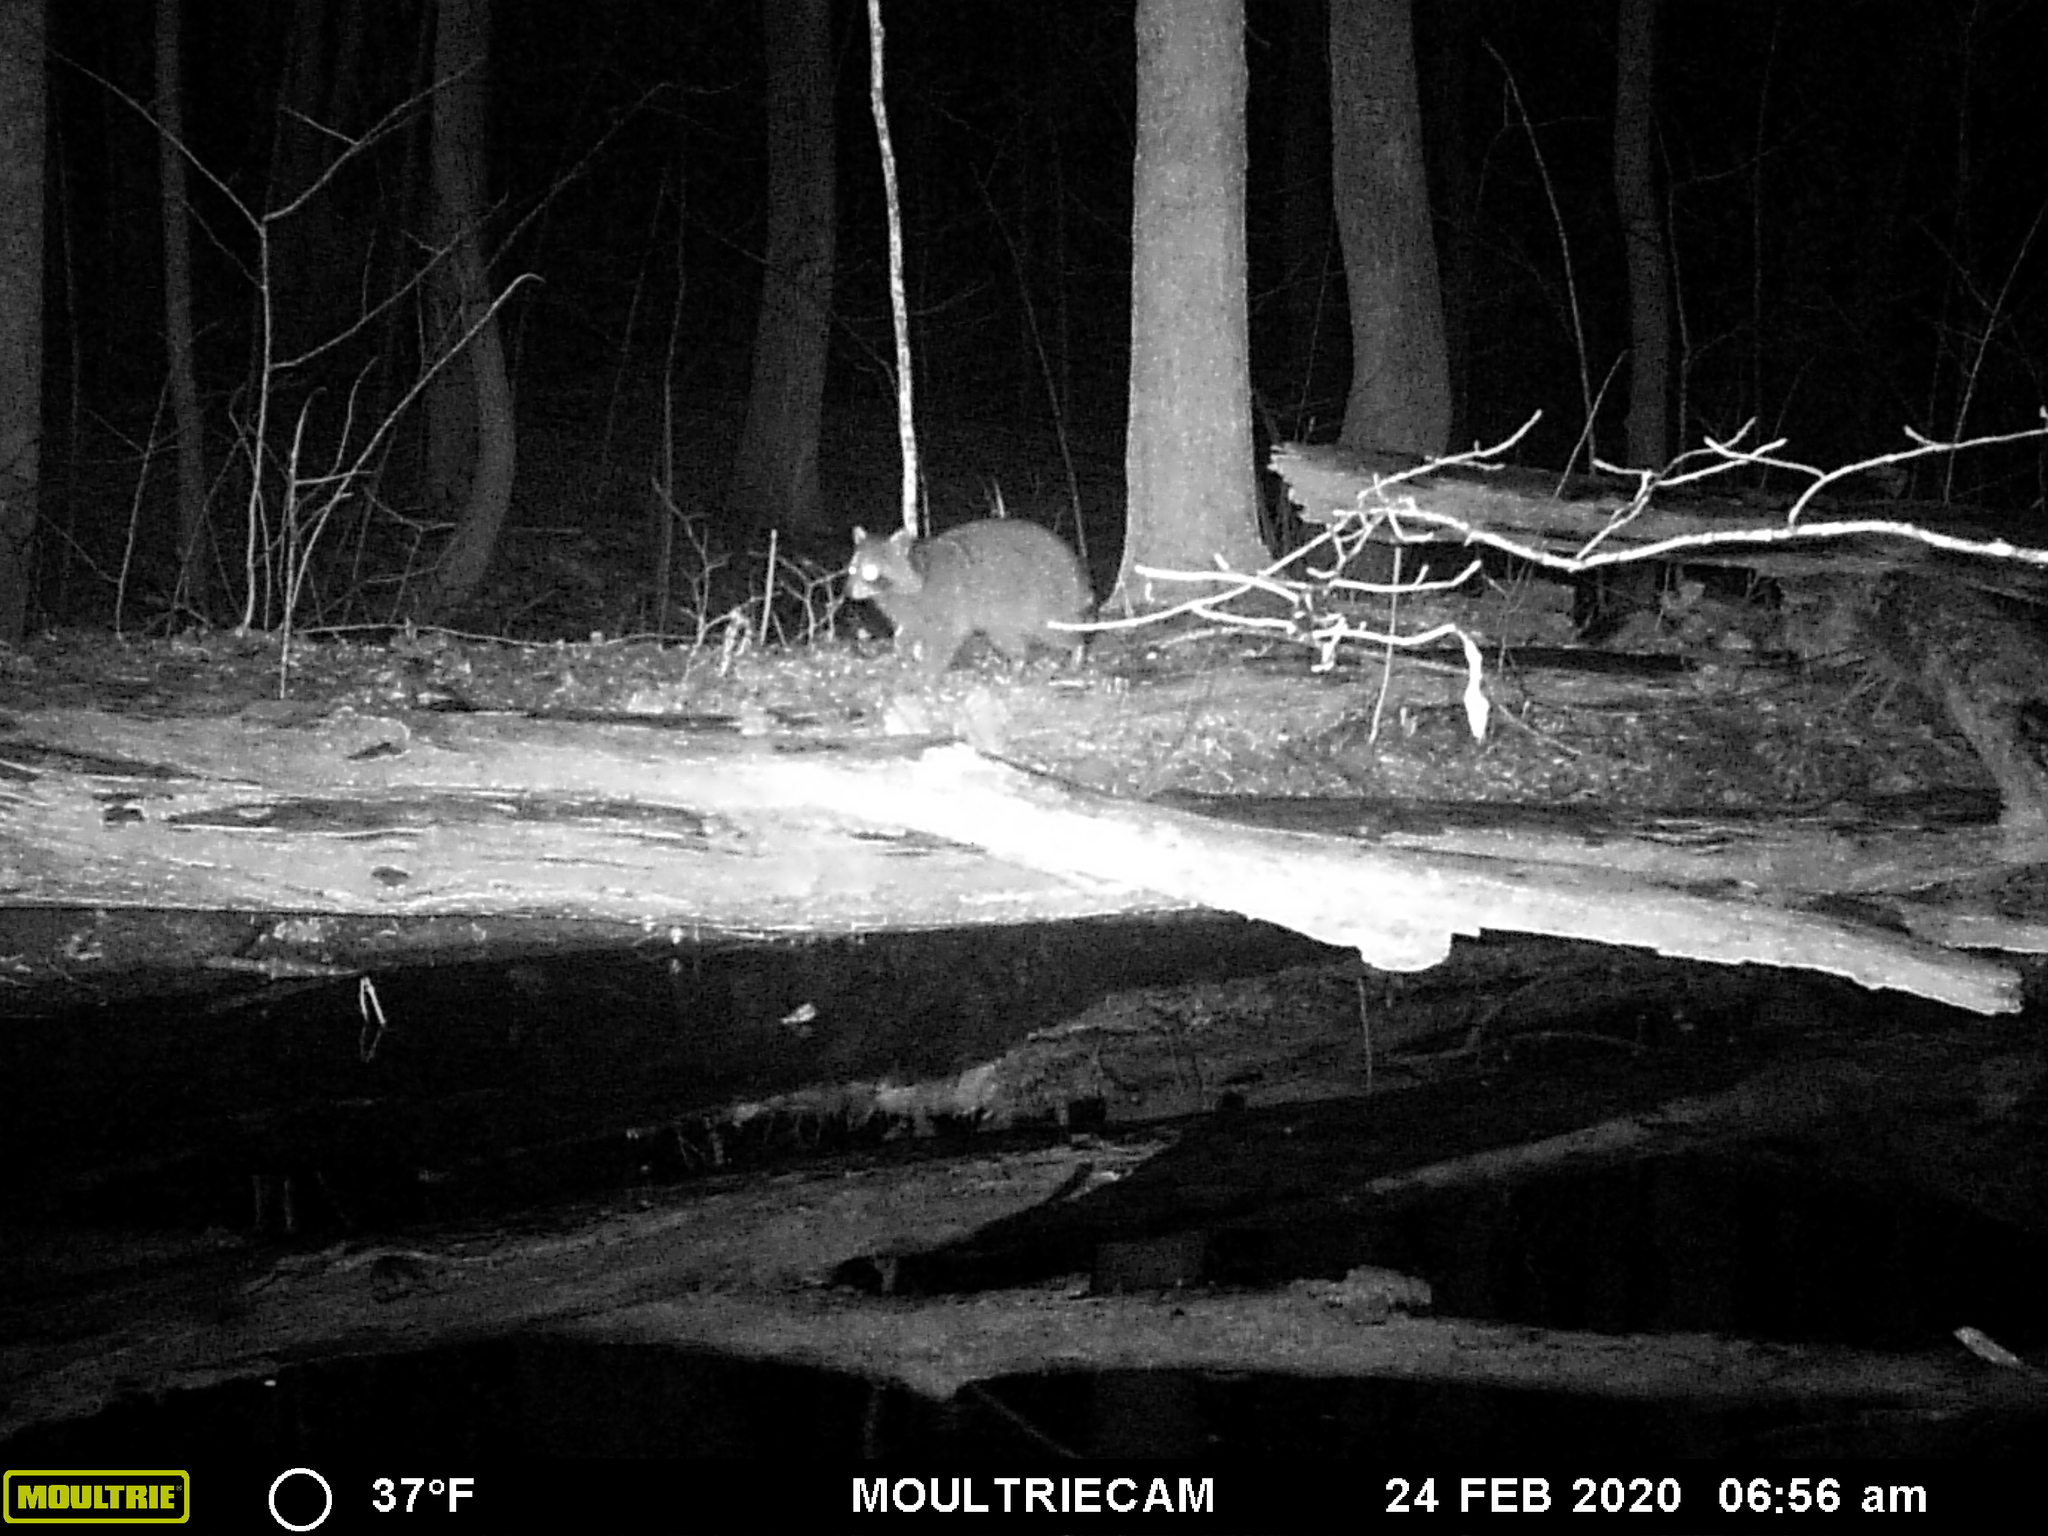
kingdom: Animalia
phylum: Chordata
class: Mammalia
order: Carnivora
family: Procyonidae
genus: Procyon
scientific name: Procyon lotor
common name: Raccoon
